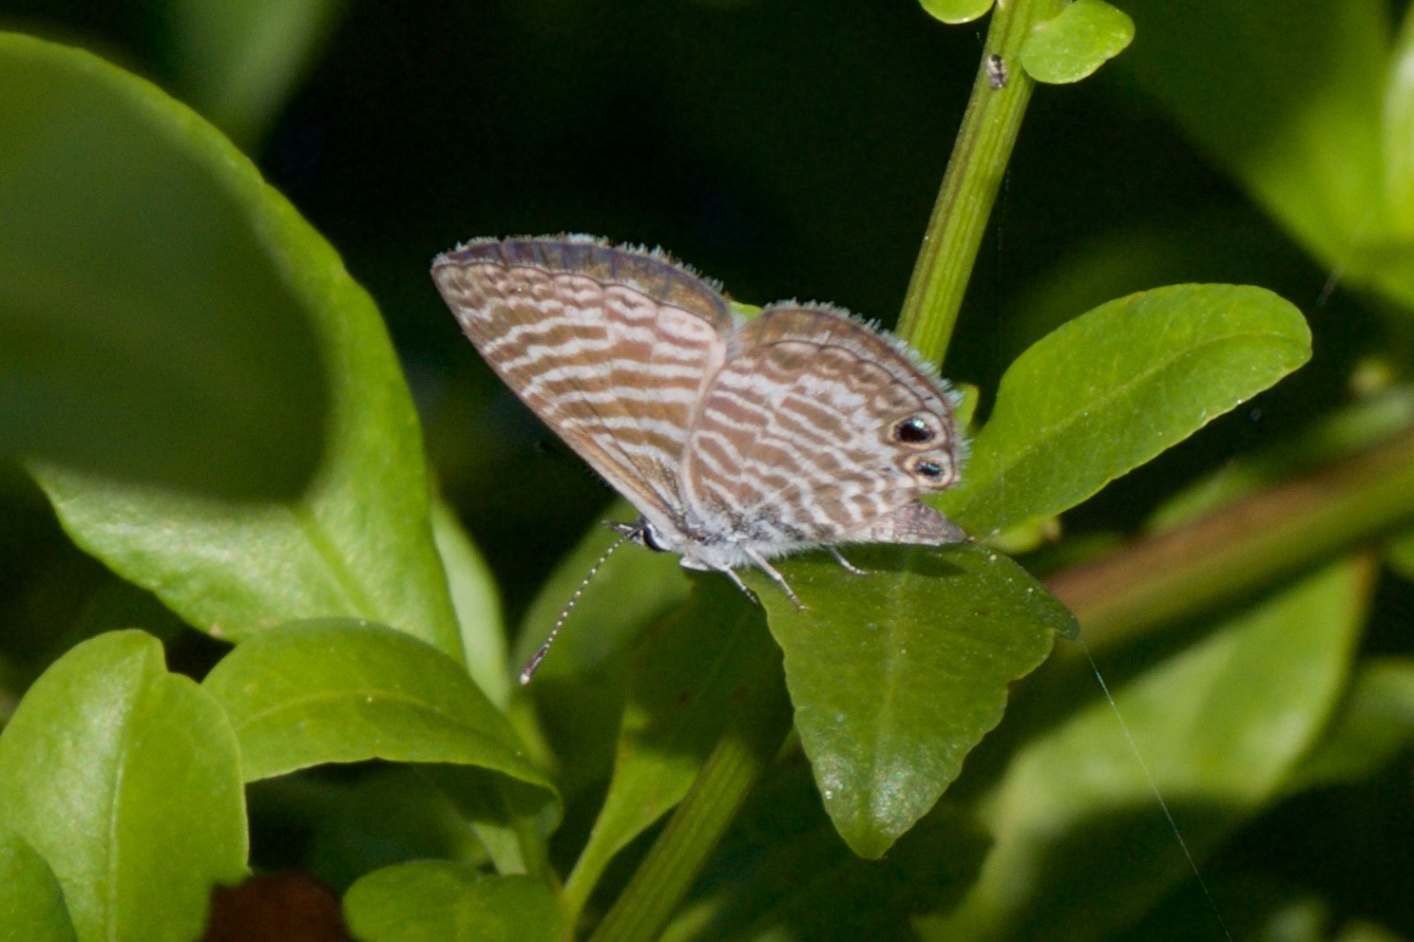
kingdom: Animalia
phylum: Arthropoda
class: Insecta
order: Lepidoptera
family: Lycaenidae
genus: Leptotes
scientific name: Leptotes marina
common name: Marine blue
